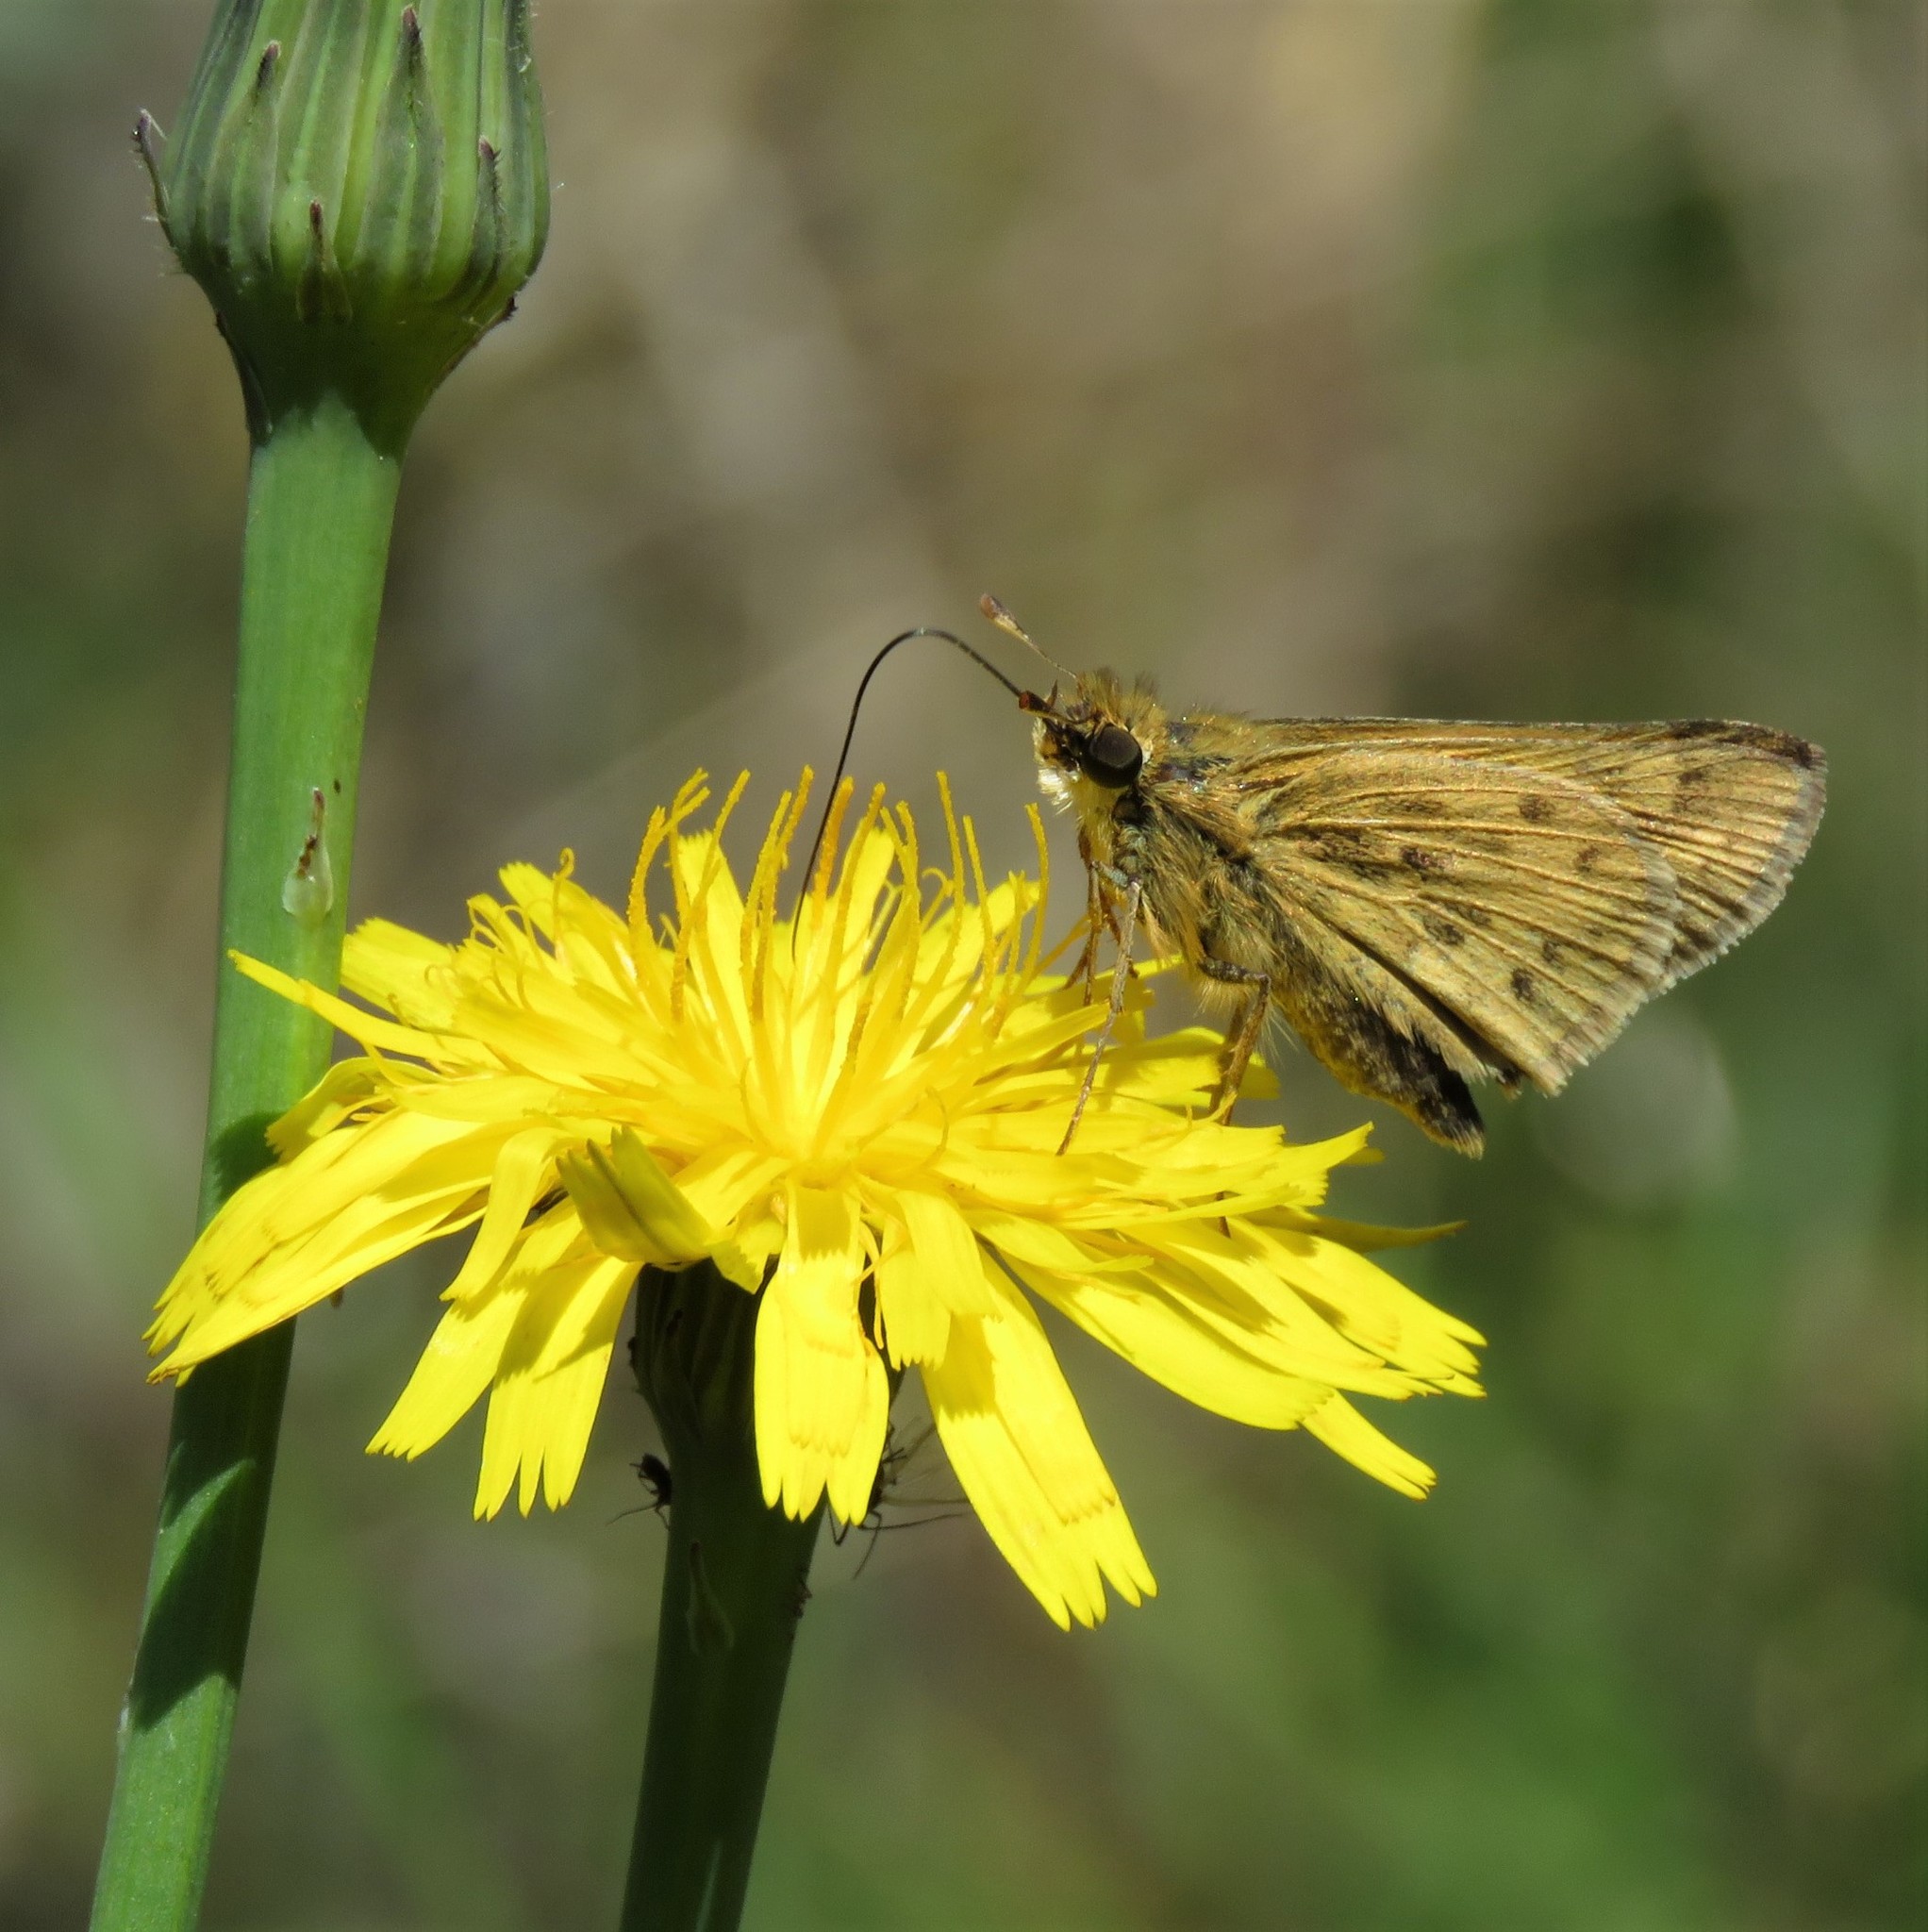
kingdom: Plantae
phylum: Tracheophyta
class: Magnoliopsida
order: Asterales
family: Asteraceae
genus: Hypochaeris
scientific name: Hypochaeris radicata
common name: Flatweed
